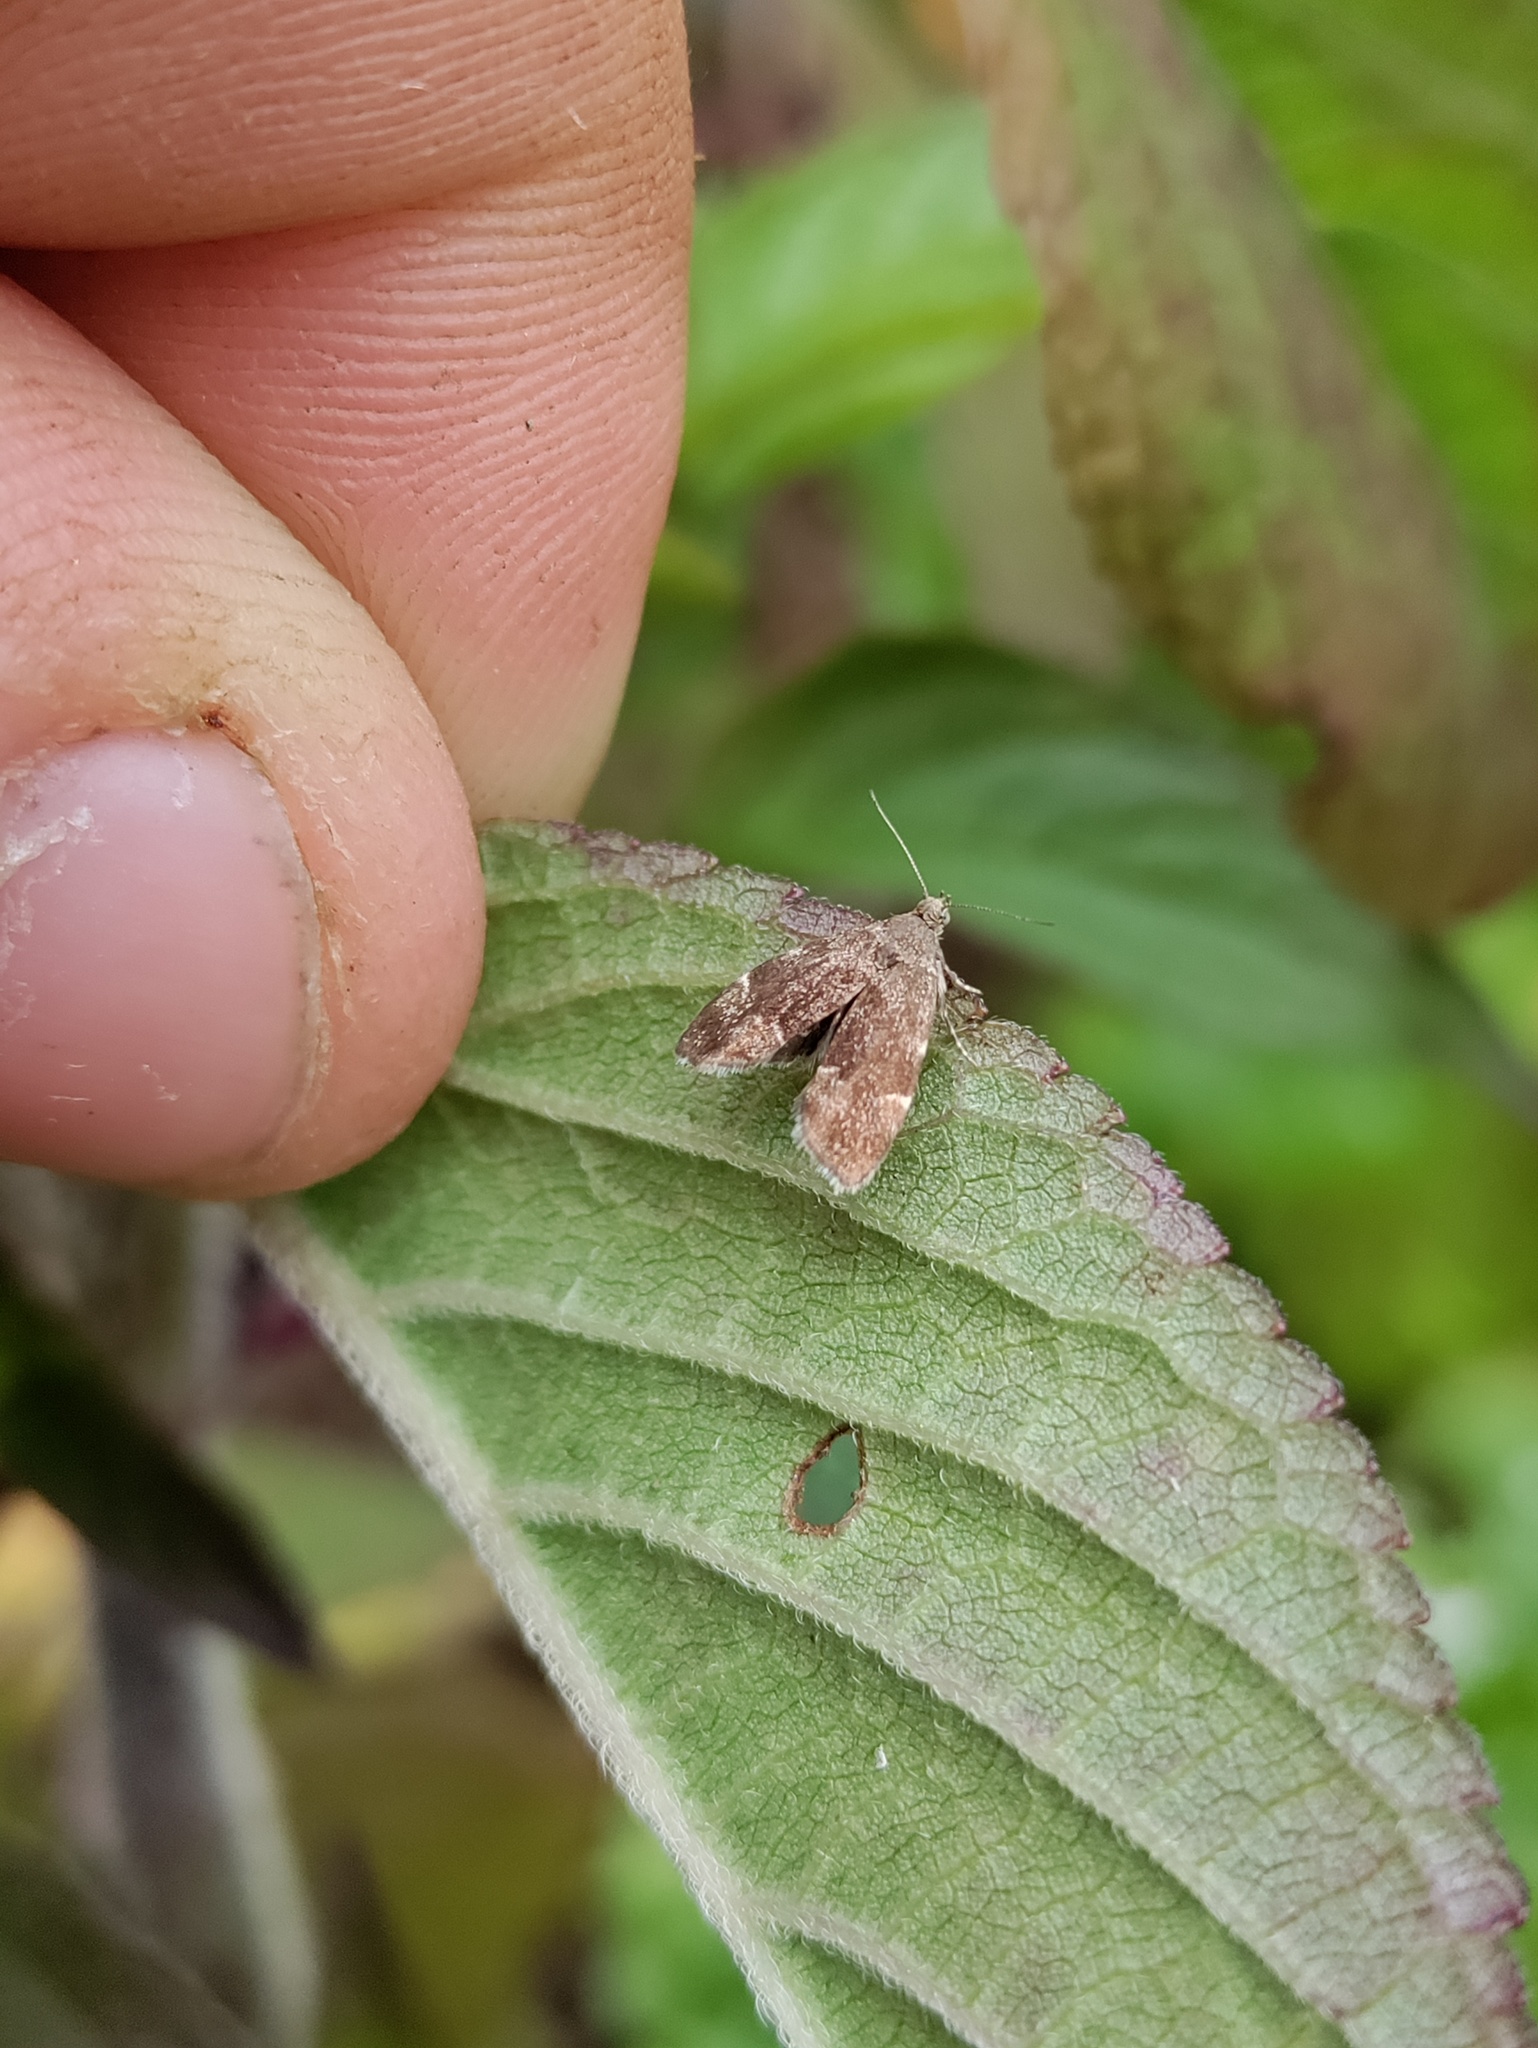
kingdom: Animalia
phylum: Arthropoda
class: Insecta
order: Lepidoptera
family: Choreutidae
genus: Anthophila
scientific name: Anthophila fabriciana
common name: Nettle-tap
